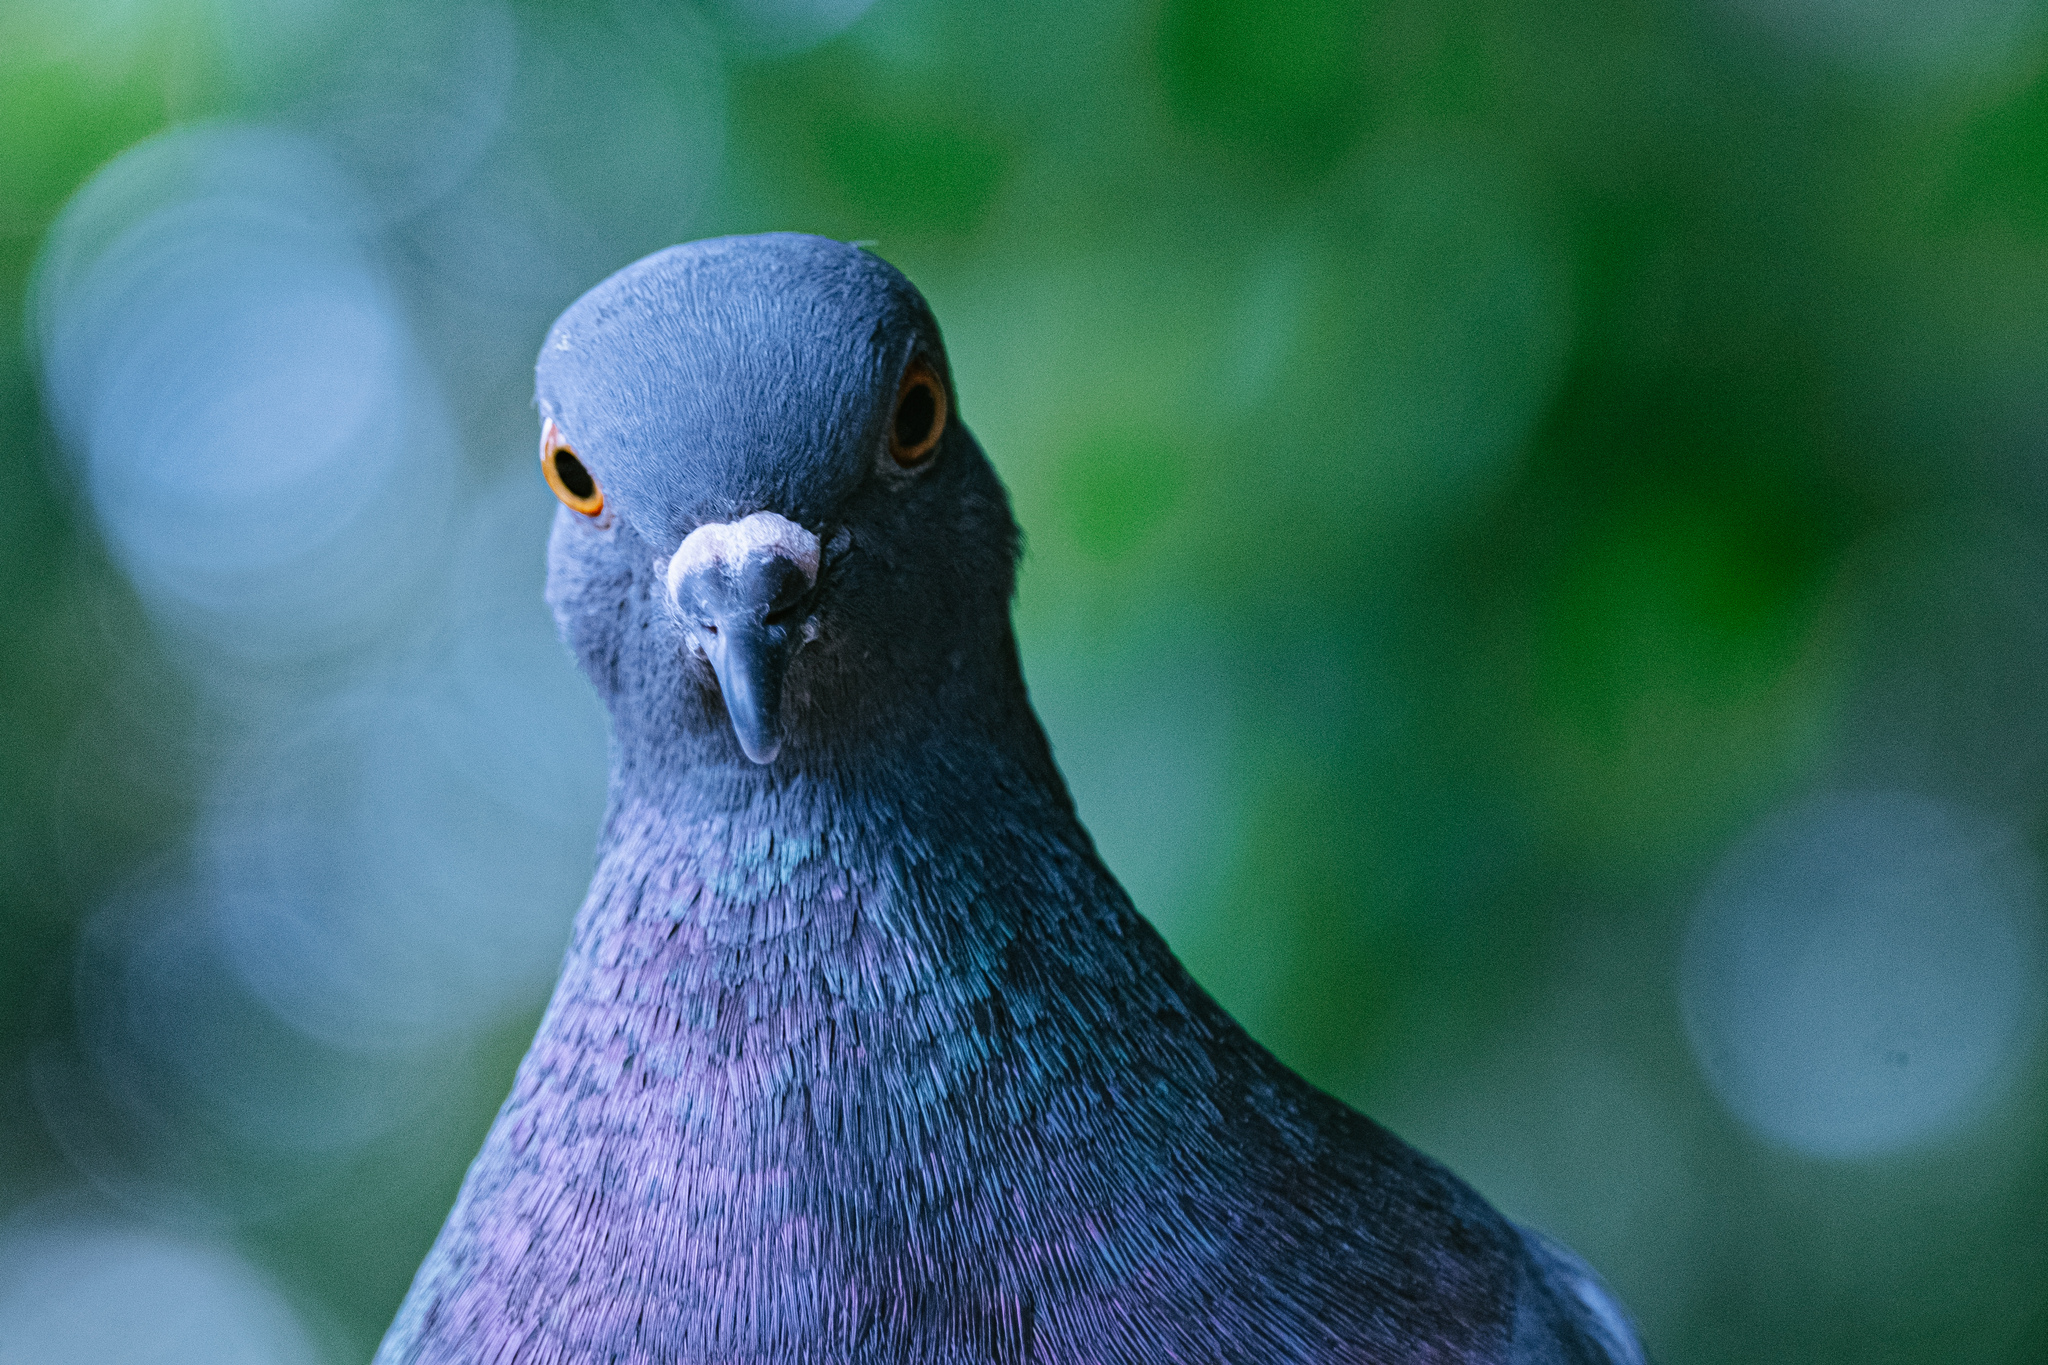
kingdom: Animalia
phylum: Chordata
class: Aves
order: Columbiformes
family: Columbidae
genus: Columba
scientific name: Columba livia
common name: Rock pigeon
